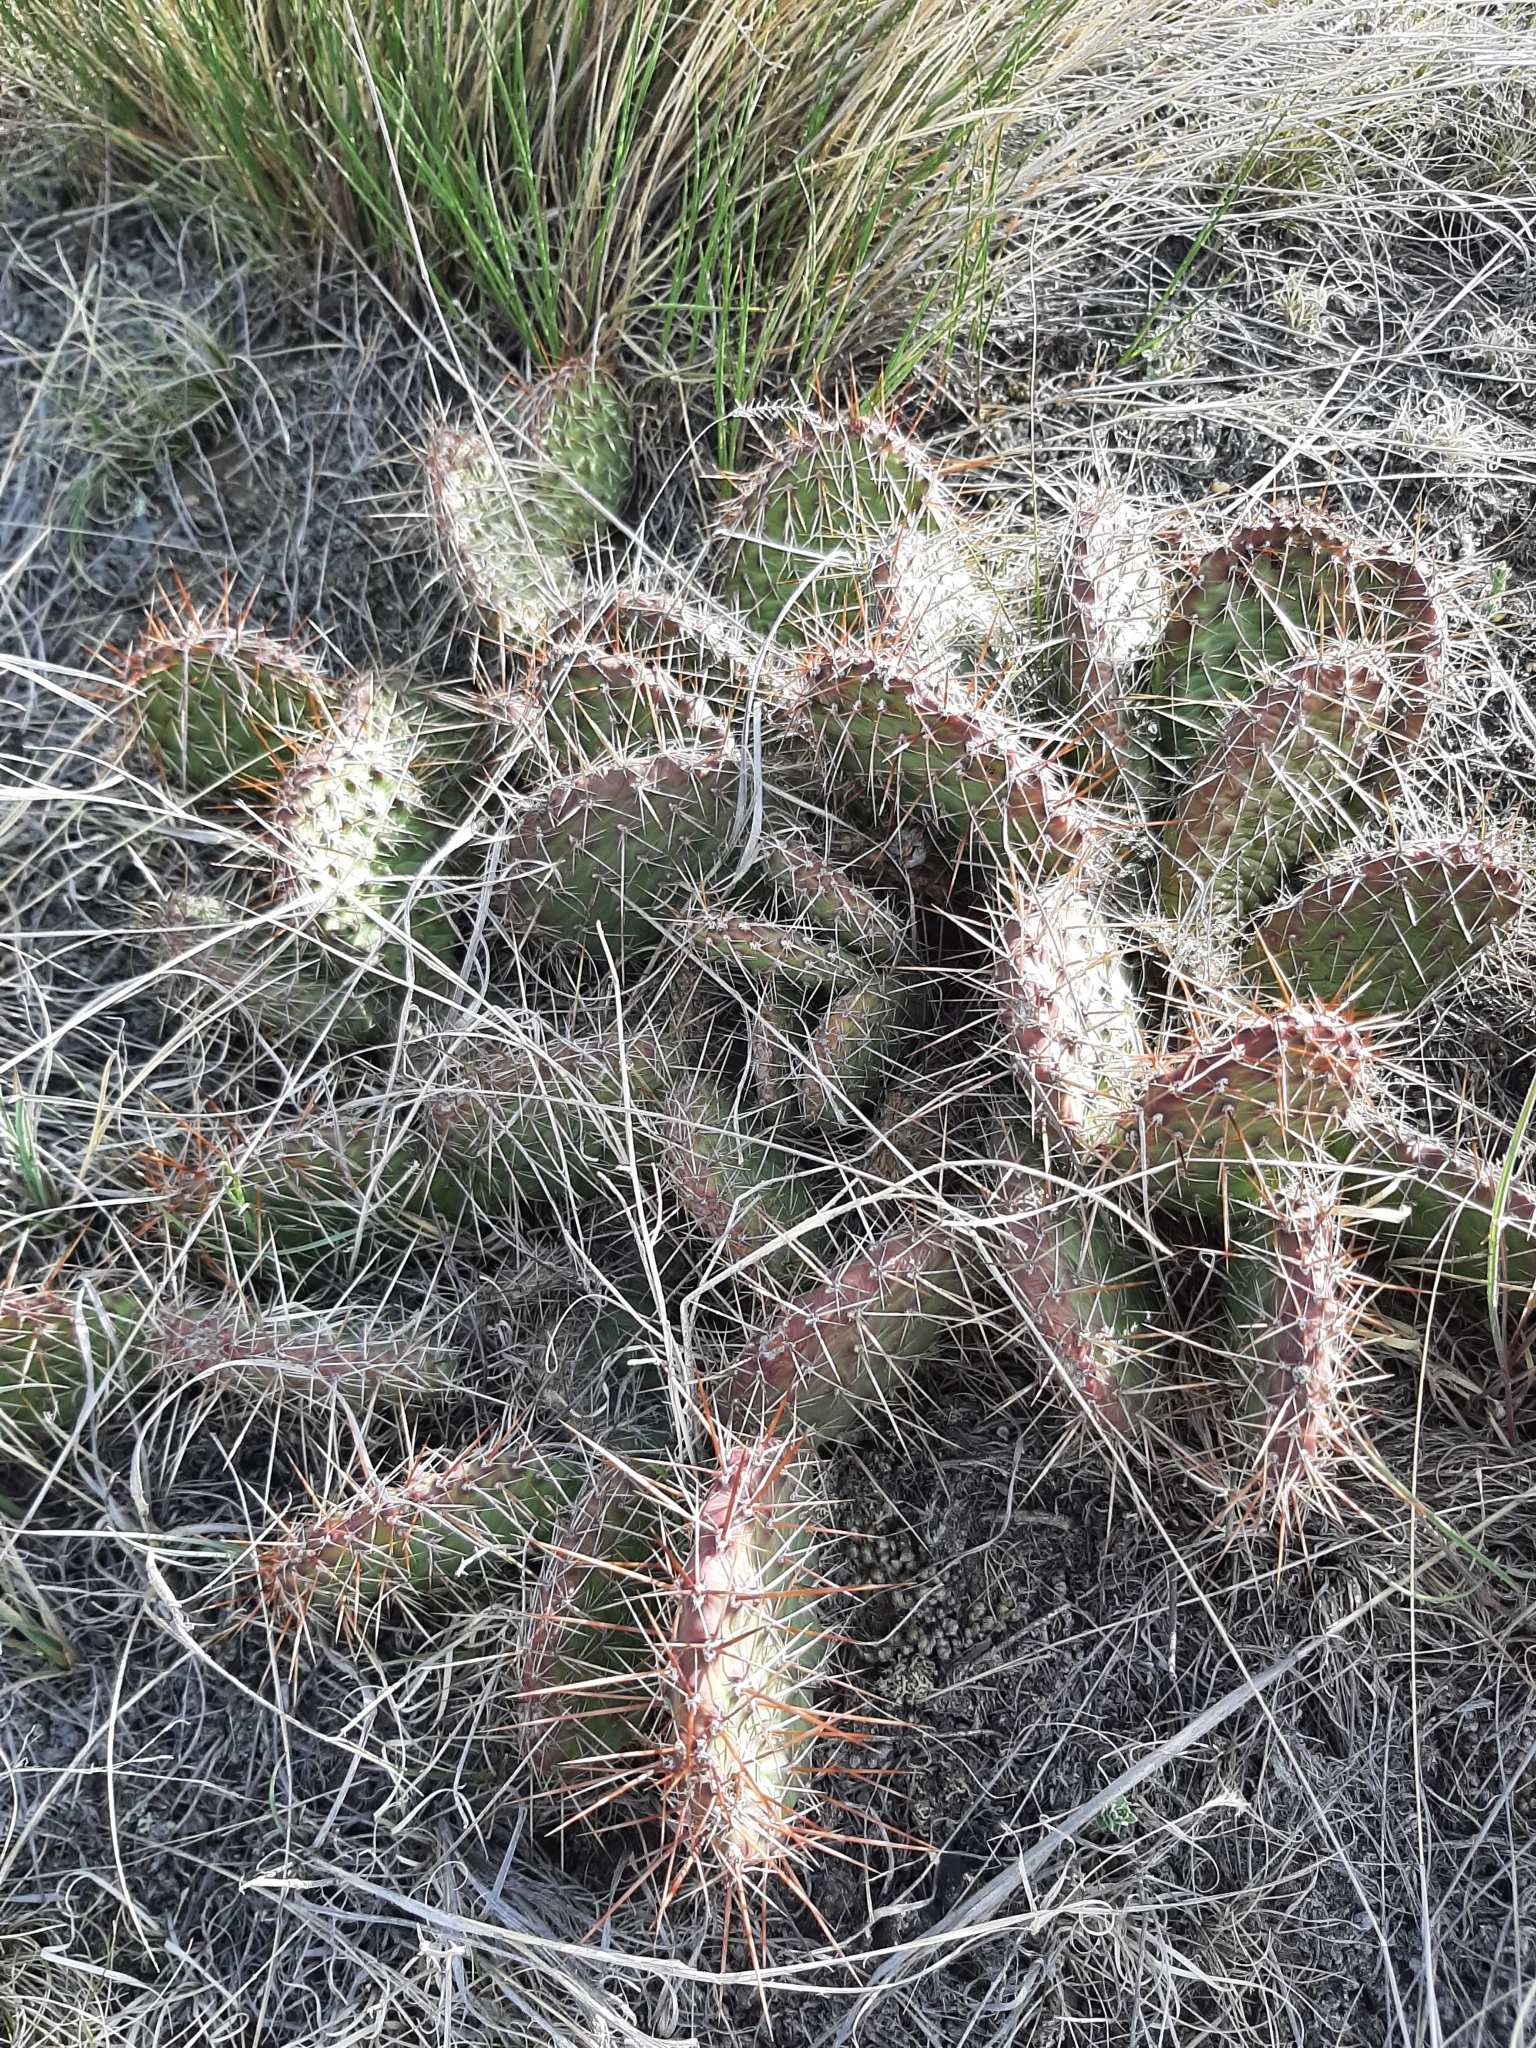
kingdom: Plantae
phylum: Tracheophyta
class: Magnoliopsida
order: Caryophyllales
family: Cactaceae
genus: Opuntia
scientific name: Opuntia polyacantha
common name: Plains prickly-pear
